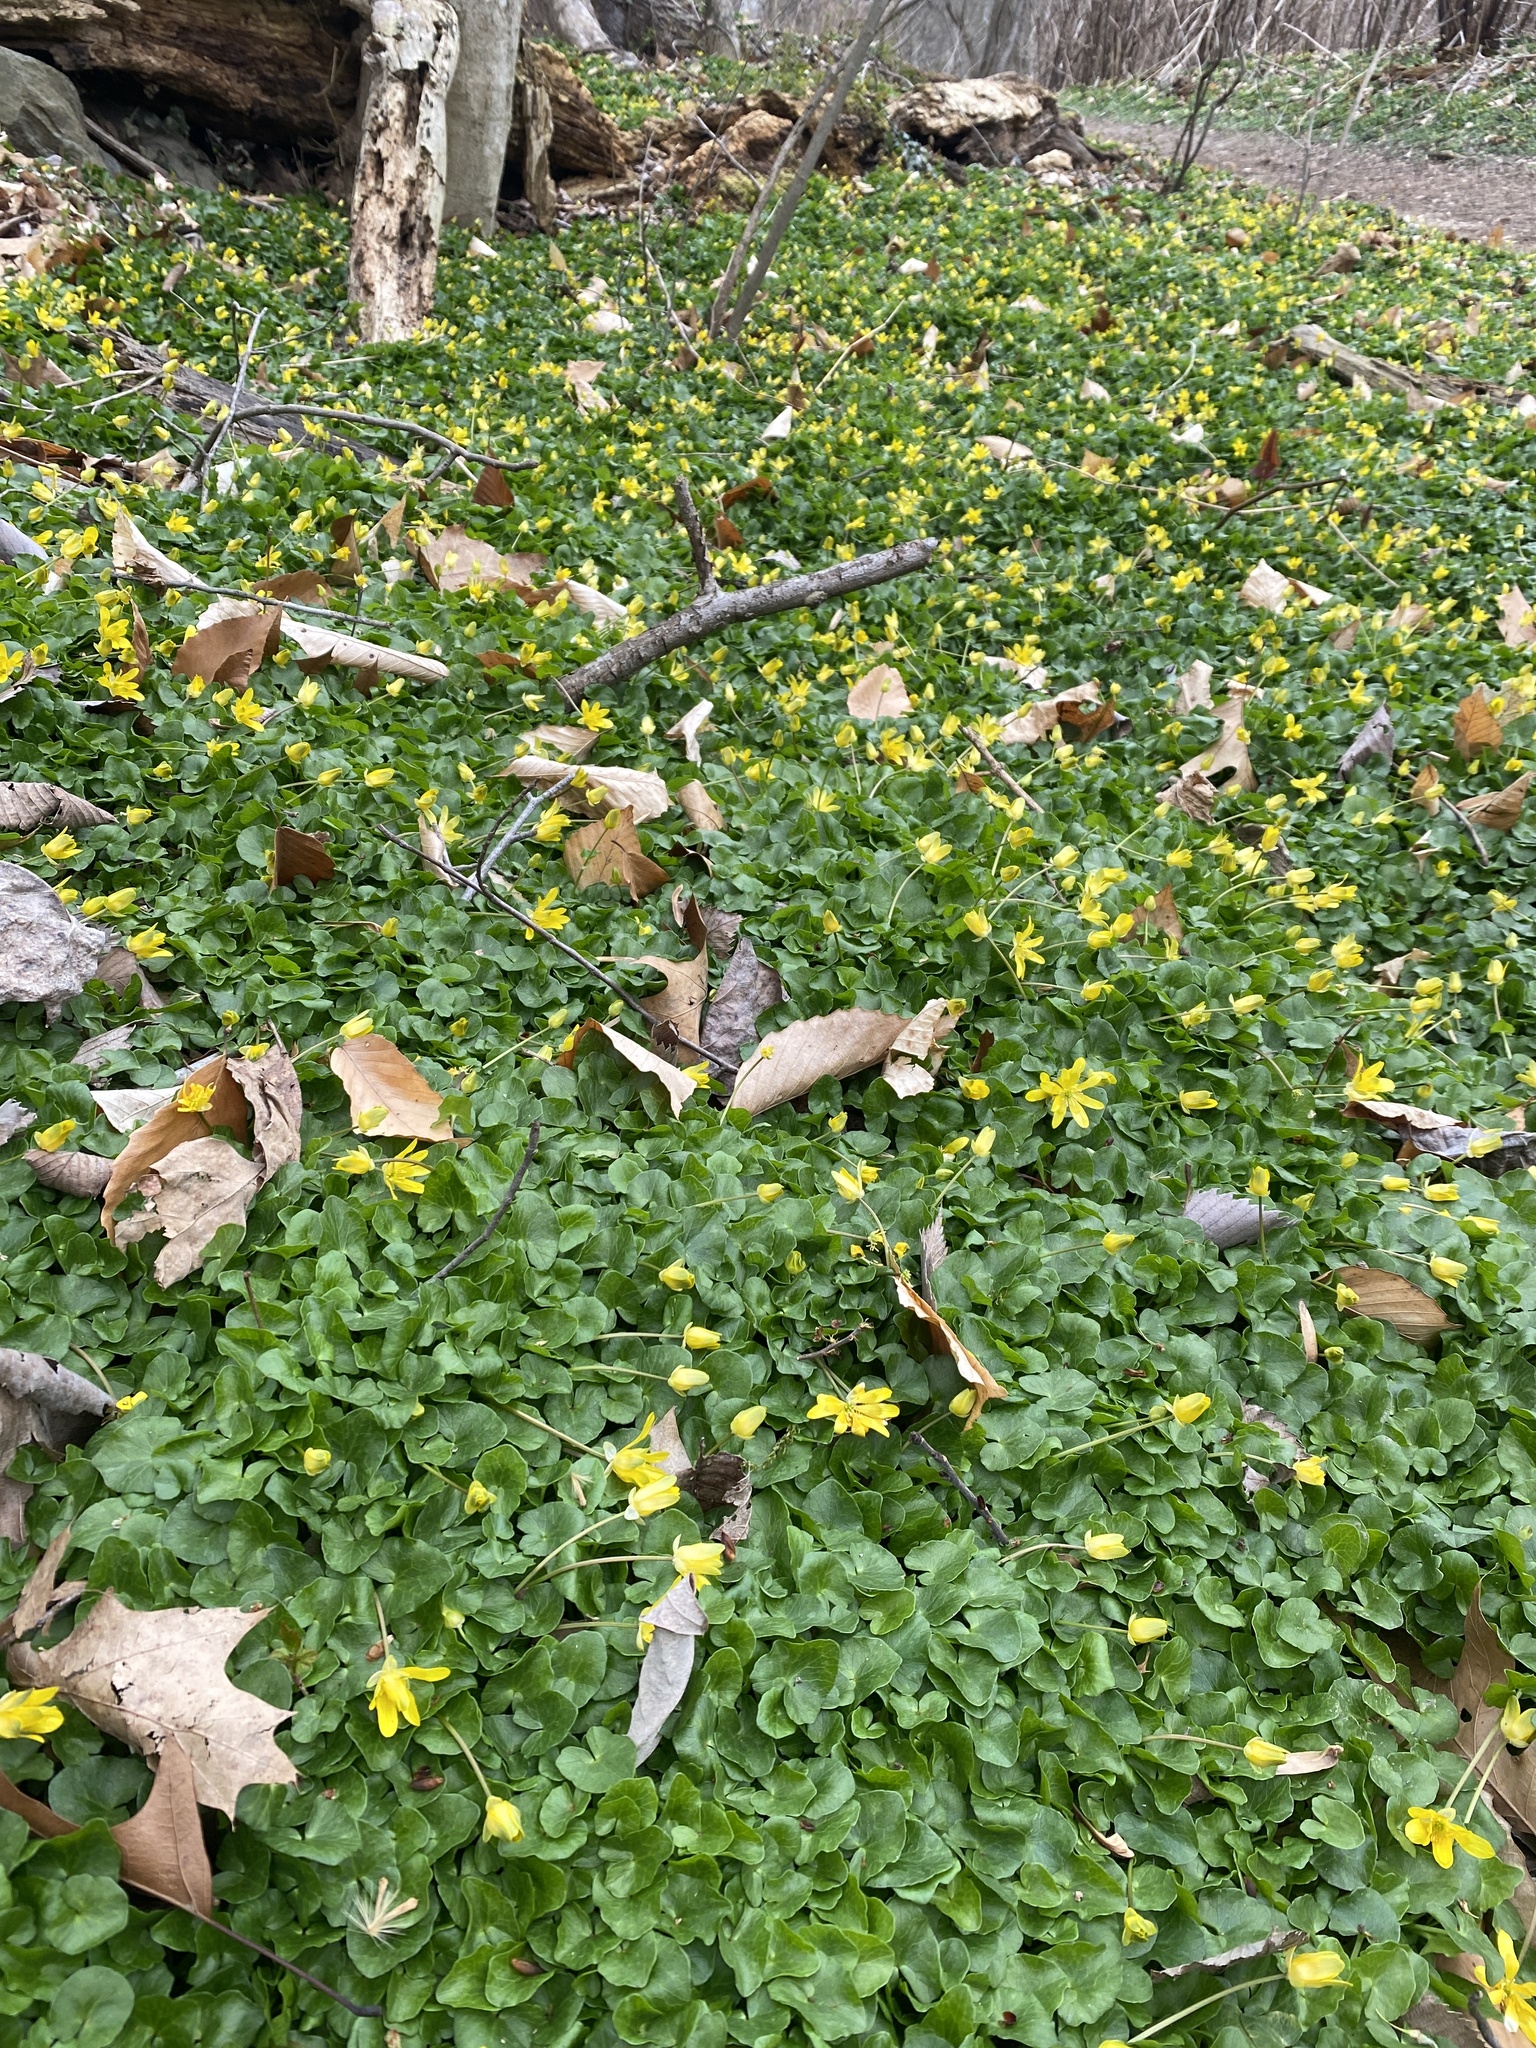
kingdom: Plantae
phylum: Tracheophyta
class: Magnoliopsida
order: Ranunculales
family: Ranunculaceae
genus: Ficaria
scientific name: Ficaria verna
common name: Lesser celandine
